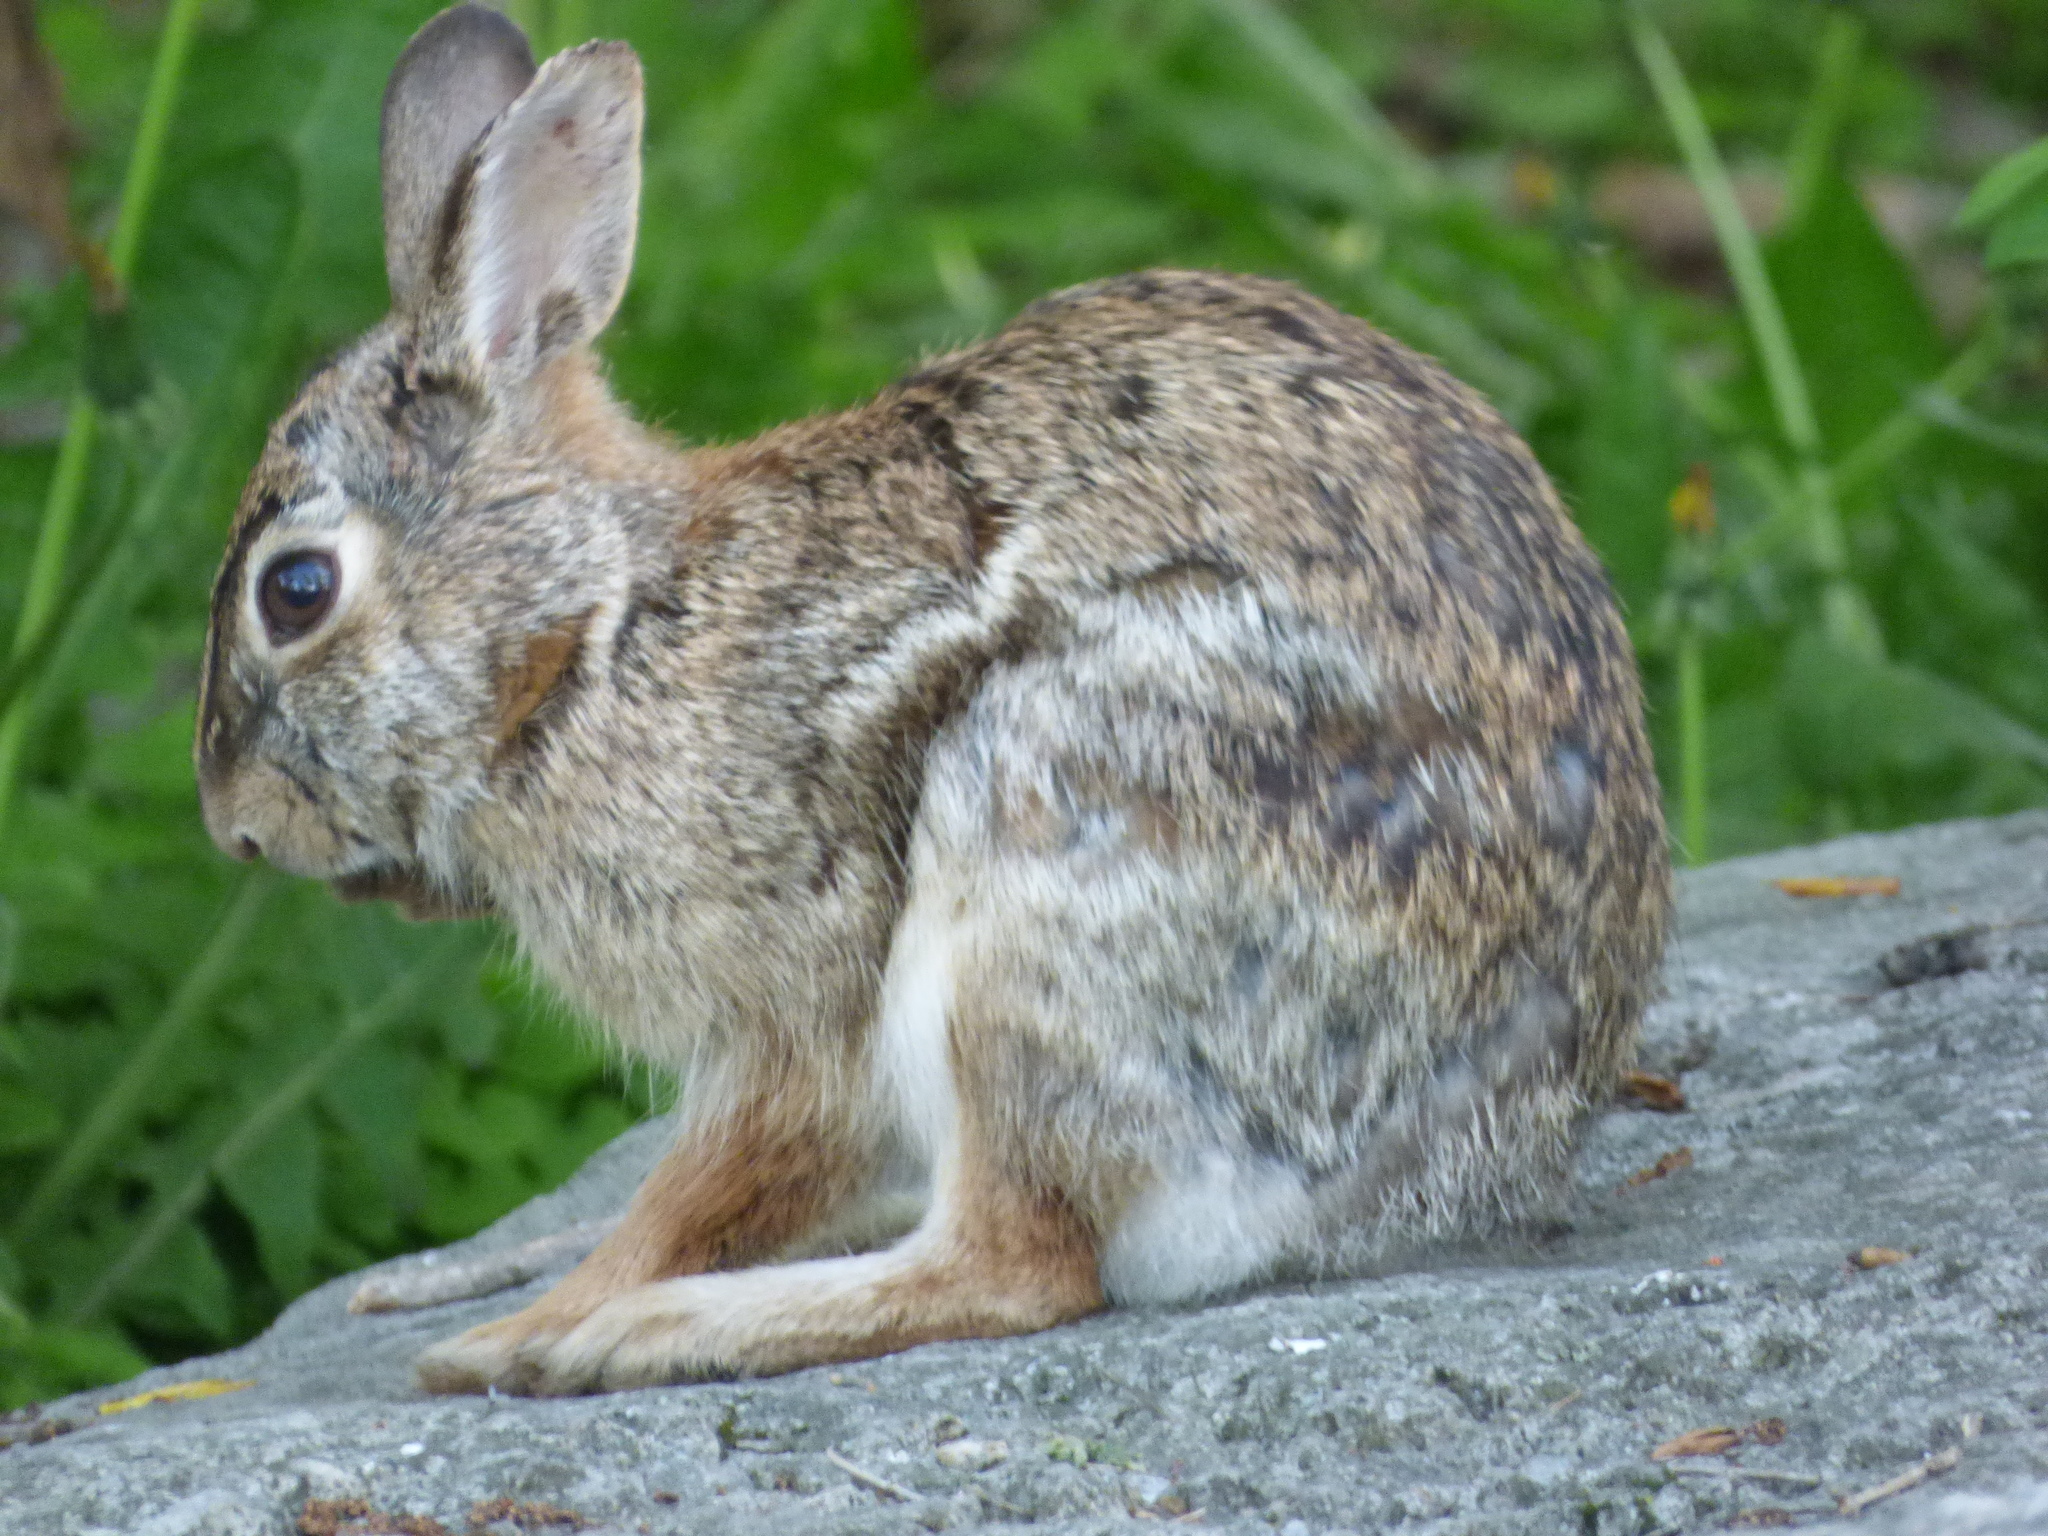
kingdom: Animalia
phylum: Chordata
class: Mammalia
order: Lagomorpha
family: Leporidae
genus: Sylvilagus
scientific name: Sylvilagus floridanus
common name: Eastern cottontail
